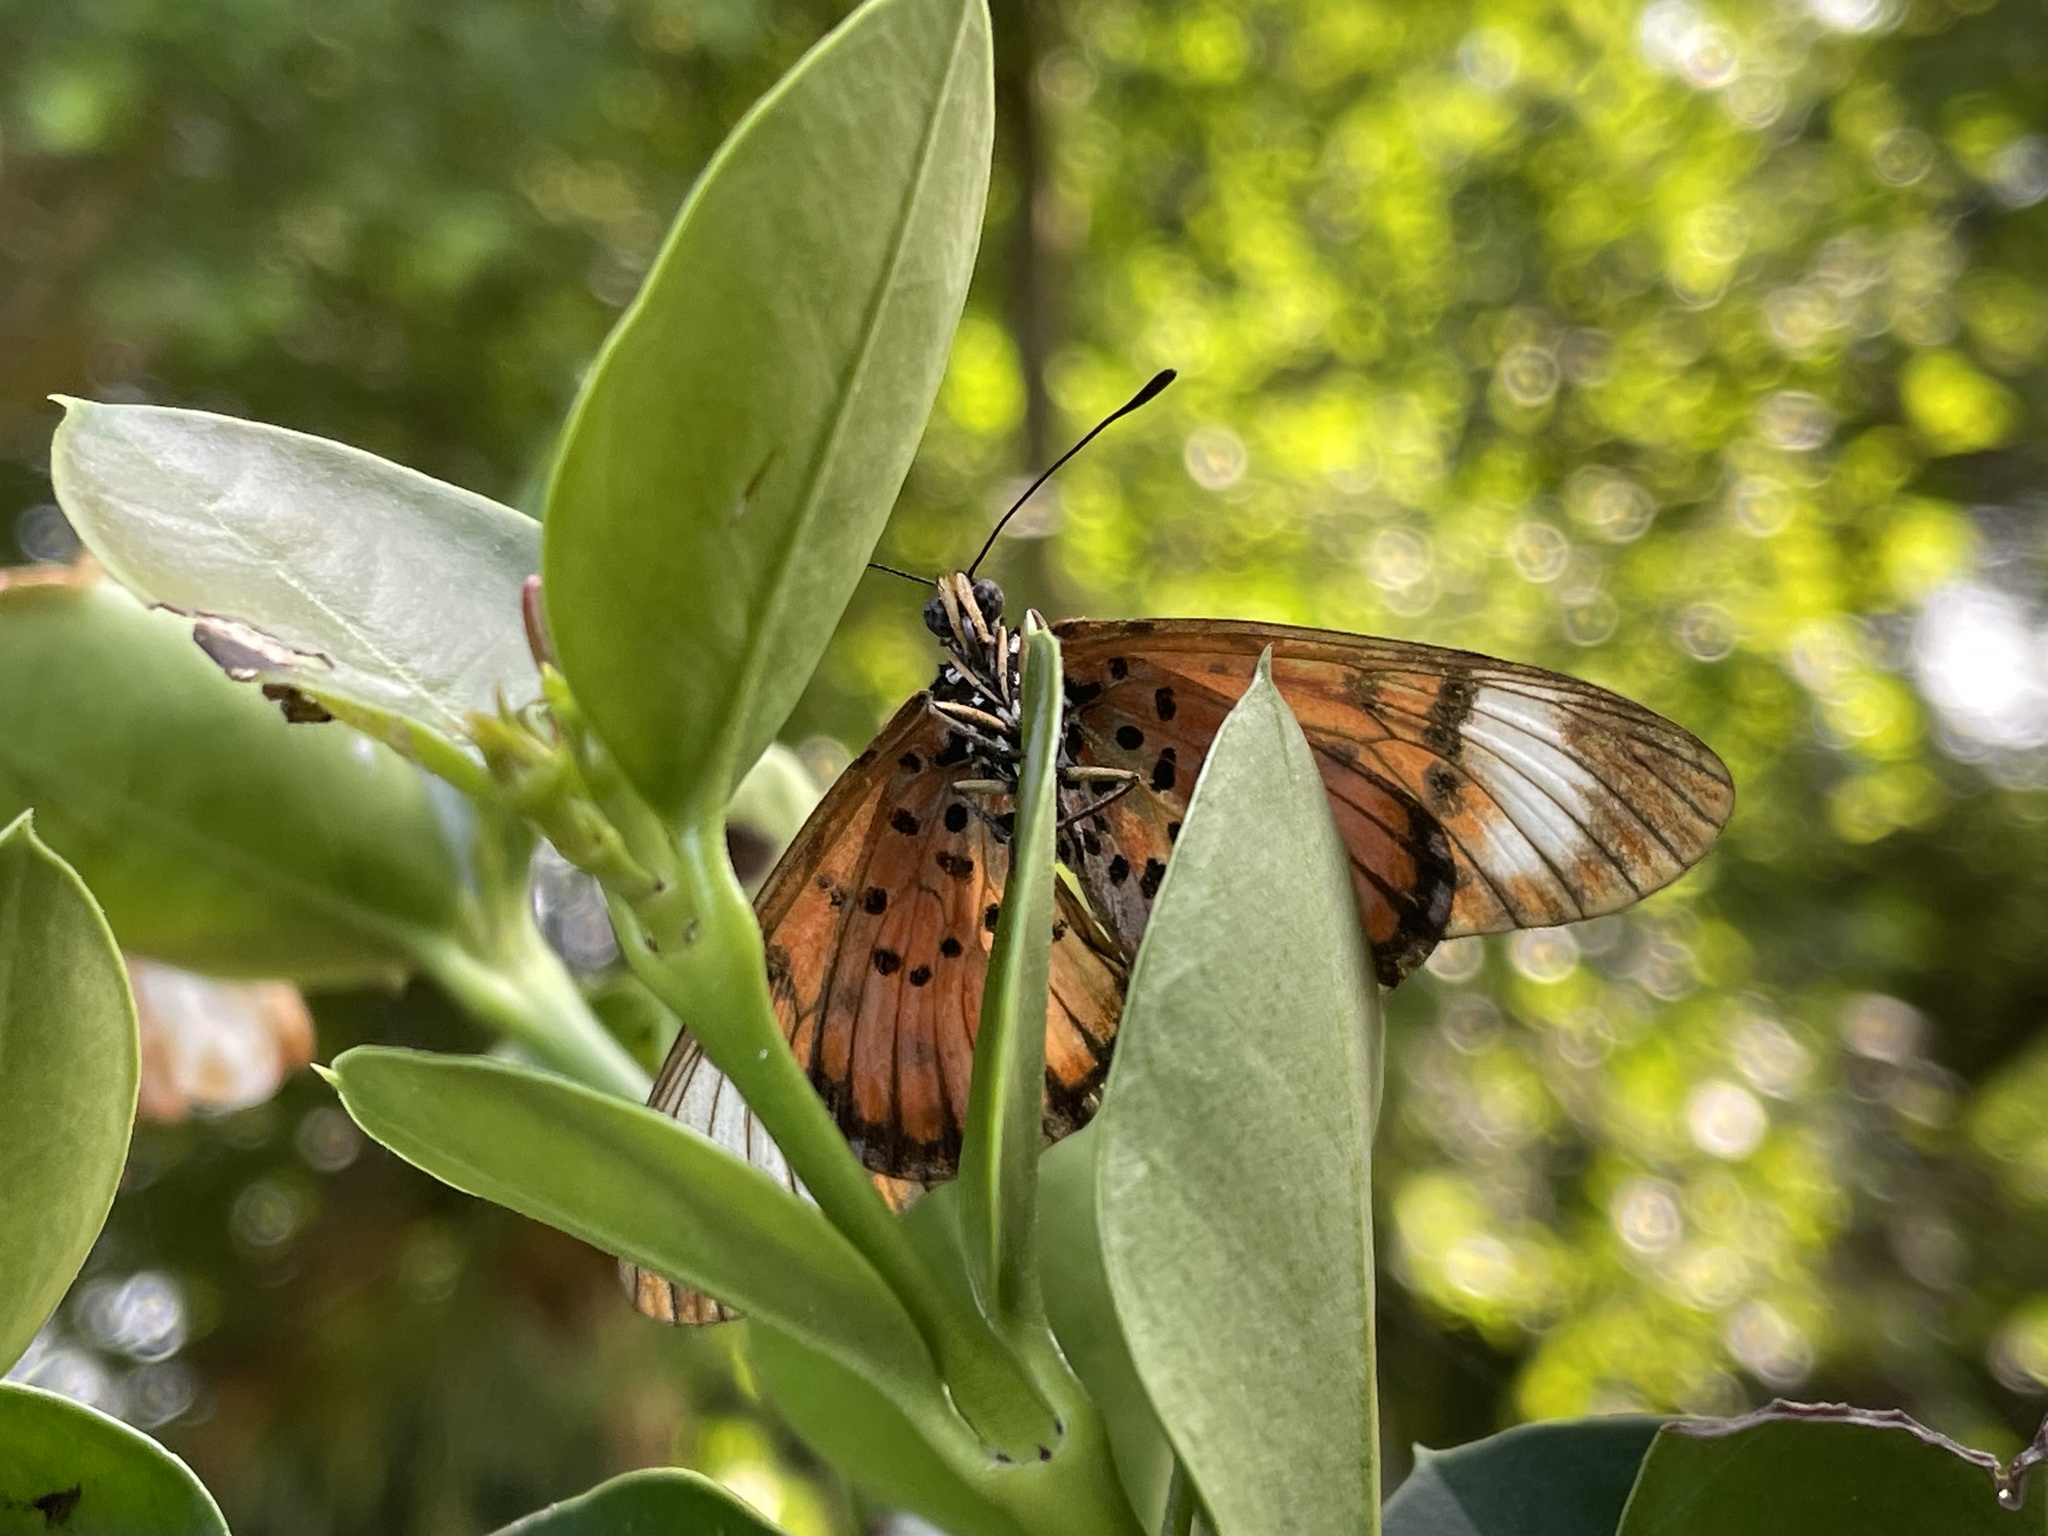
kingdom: Animalia
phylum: Arthropoda
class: Insecta
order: Lepidoptera
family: Nymphalidae
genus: Rubraea
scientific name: Rubraea
